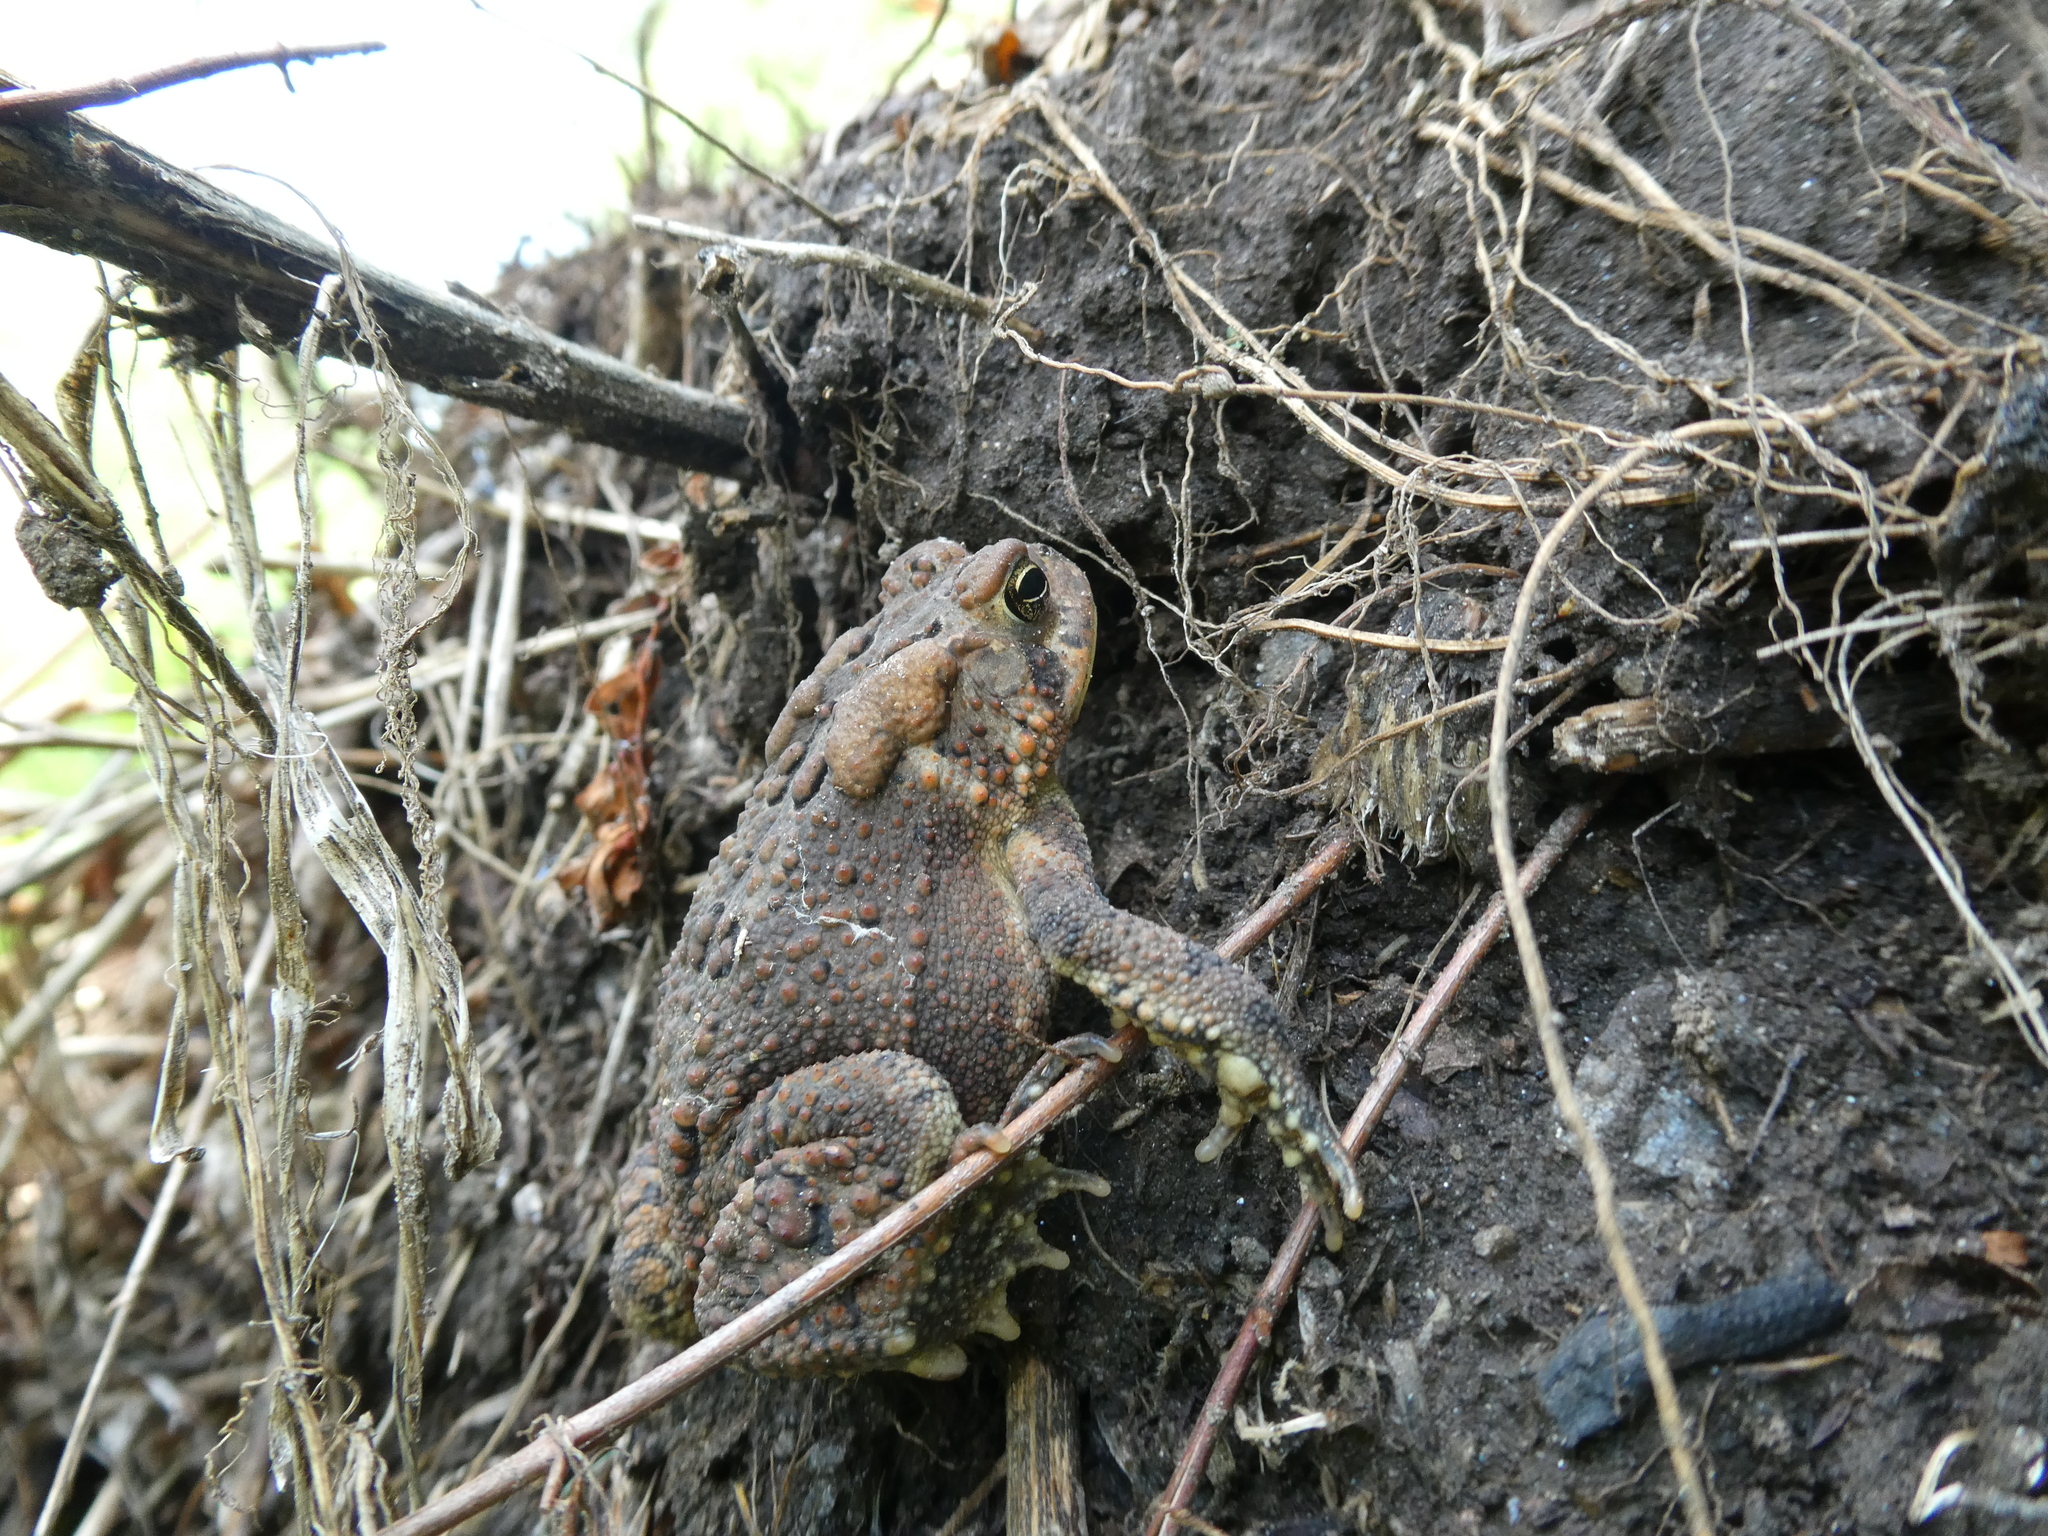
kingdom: Animalia
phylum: Chordata
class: Amphibia
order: Anura
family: Bufonidae
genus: Anaxyrus
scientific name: Anaxyrus americanus
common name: American toad
